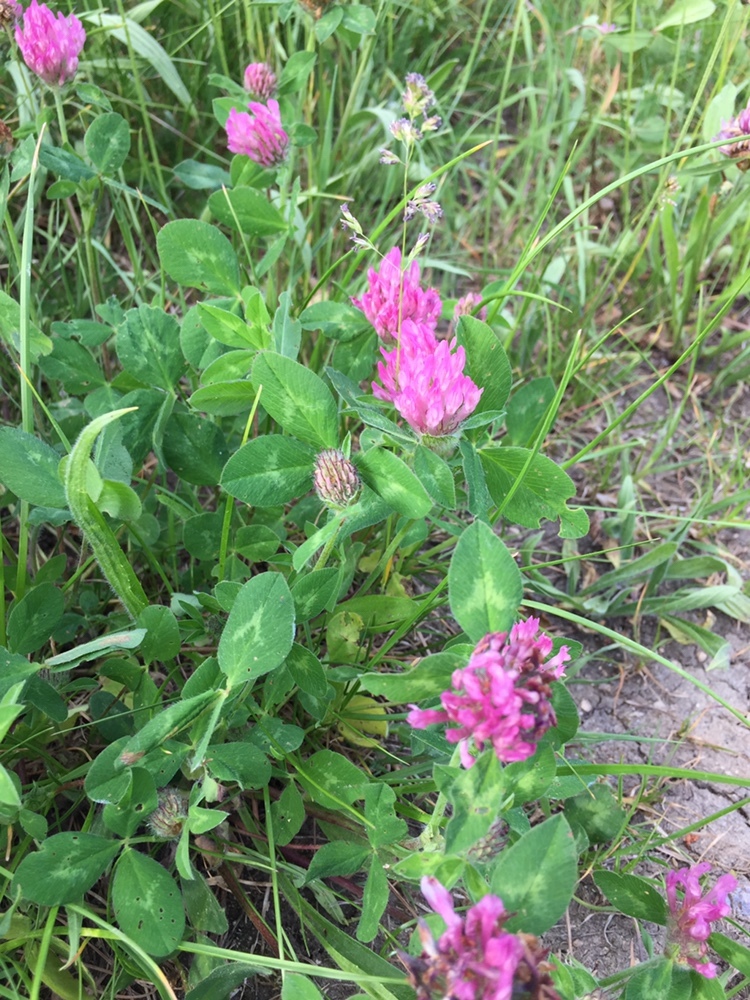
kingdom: Plantae
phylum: Tracheophyta
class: Magnoliopsida
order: Fabales
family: Fabaceae
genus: Trifolium
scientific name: Trifolium pratense
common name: Red clover
